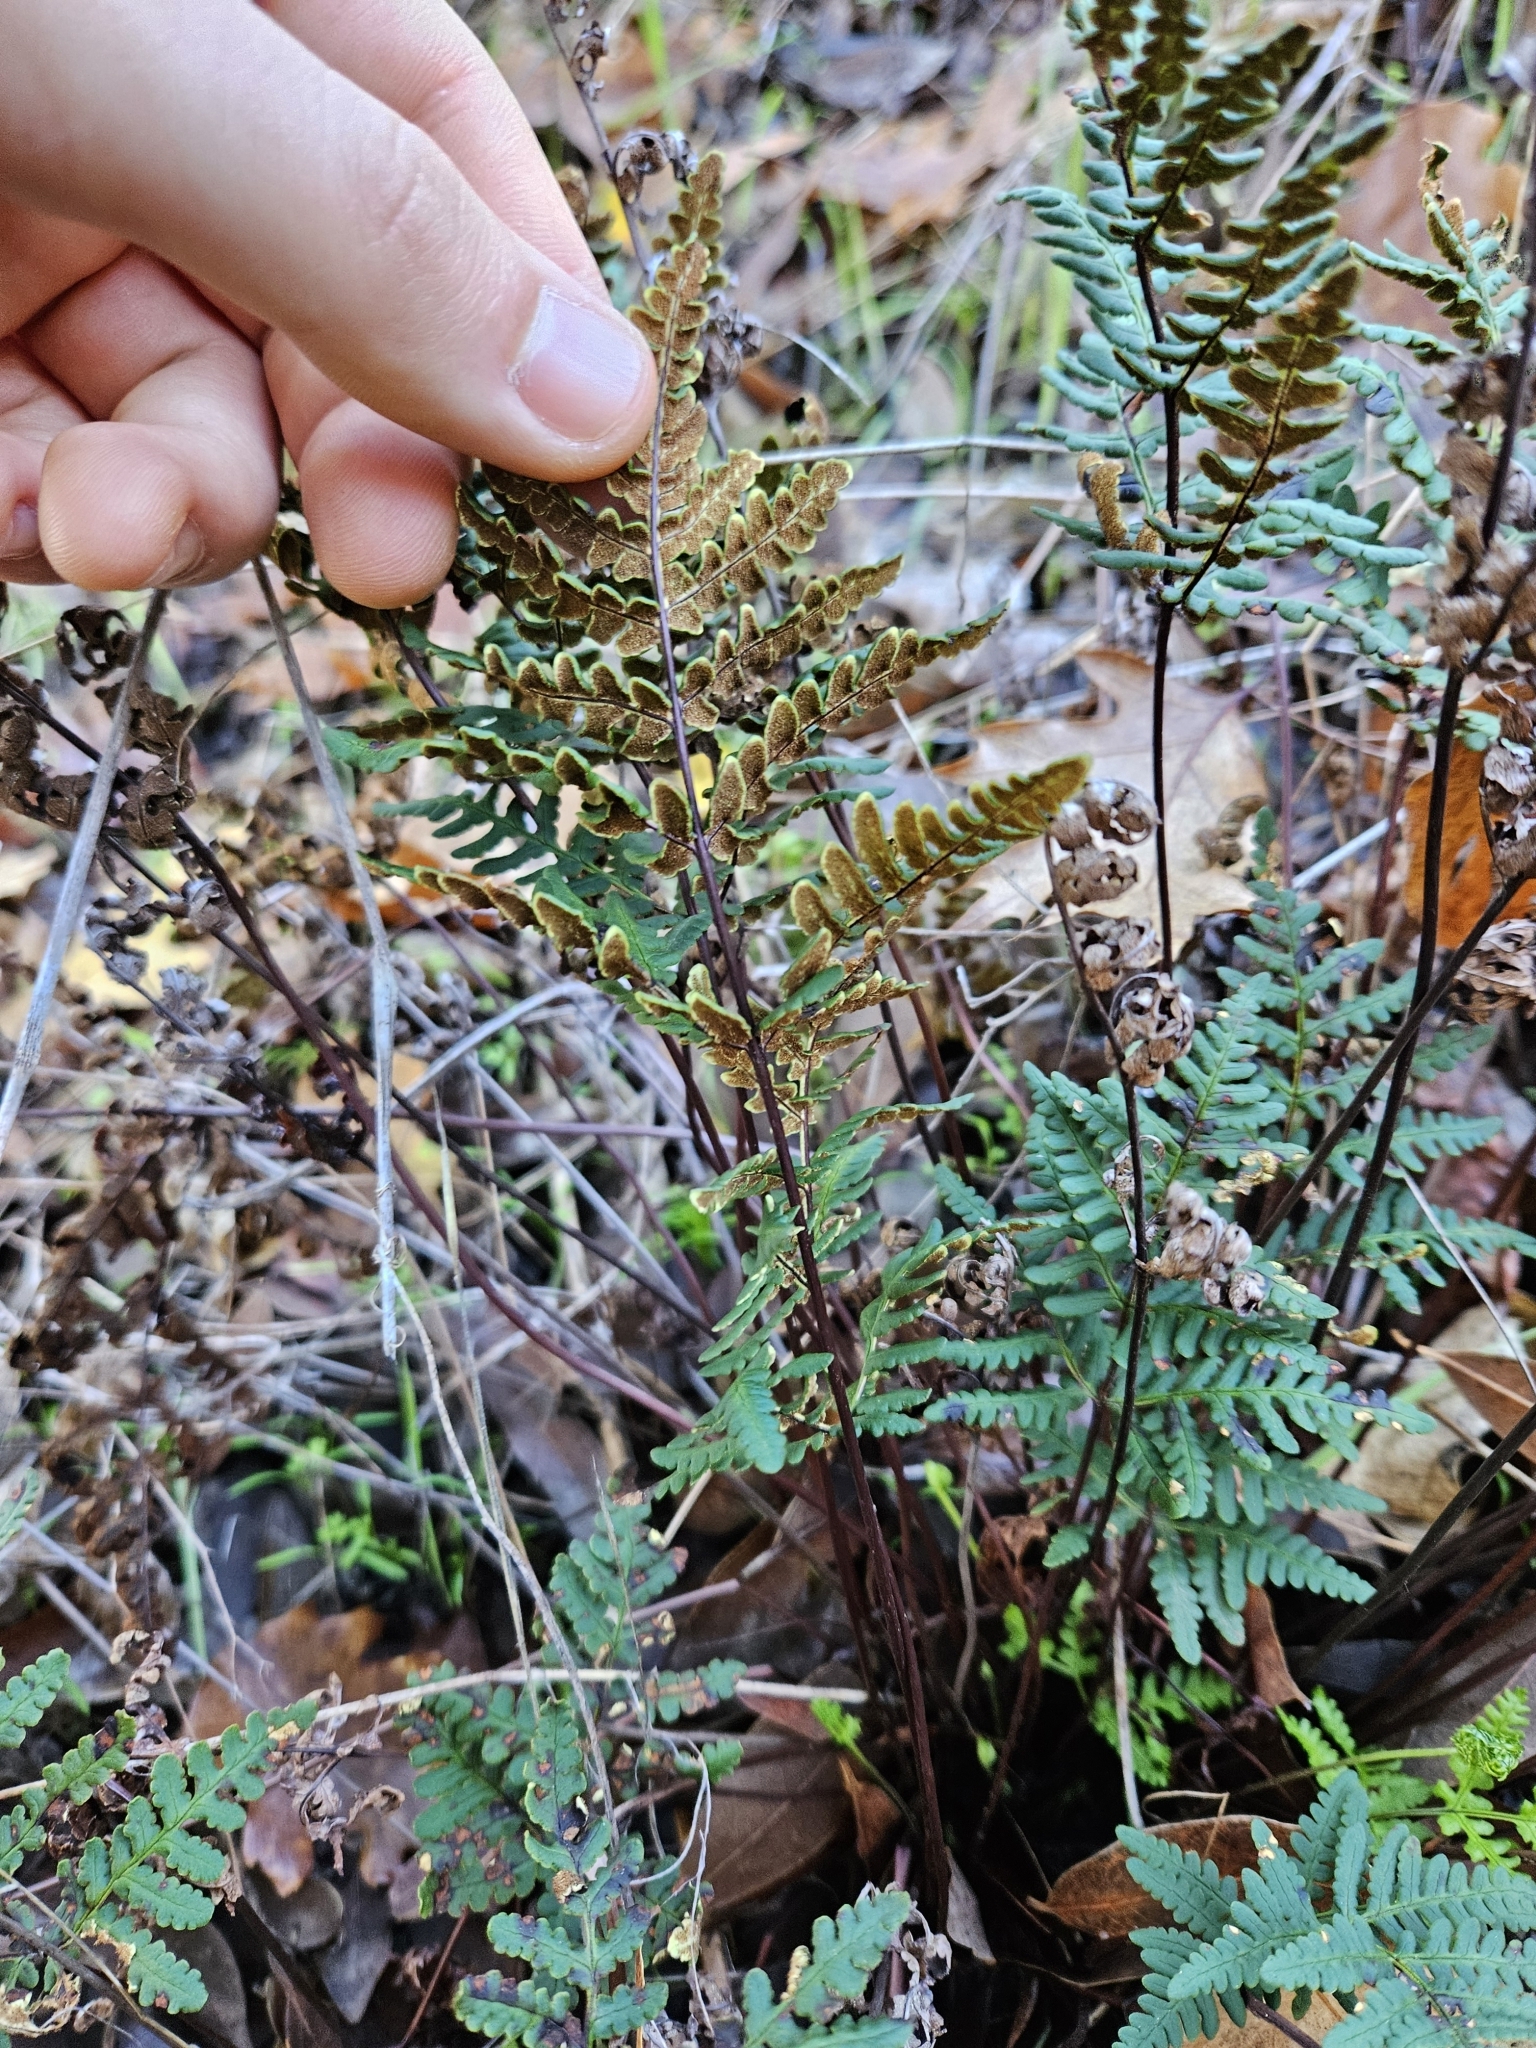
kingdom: Plantae
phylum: Tracheophyta
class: Polypodiopsida
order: Polypodiales
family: Pteridaceae
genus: Pentagramma
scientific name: Pentagramma triangularis
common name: Gold fern
